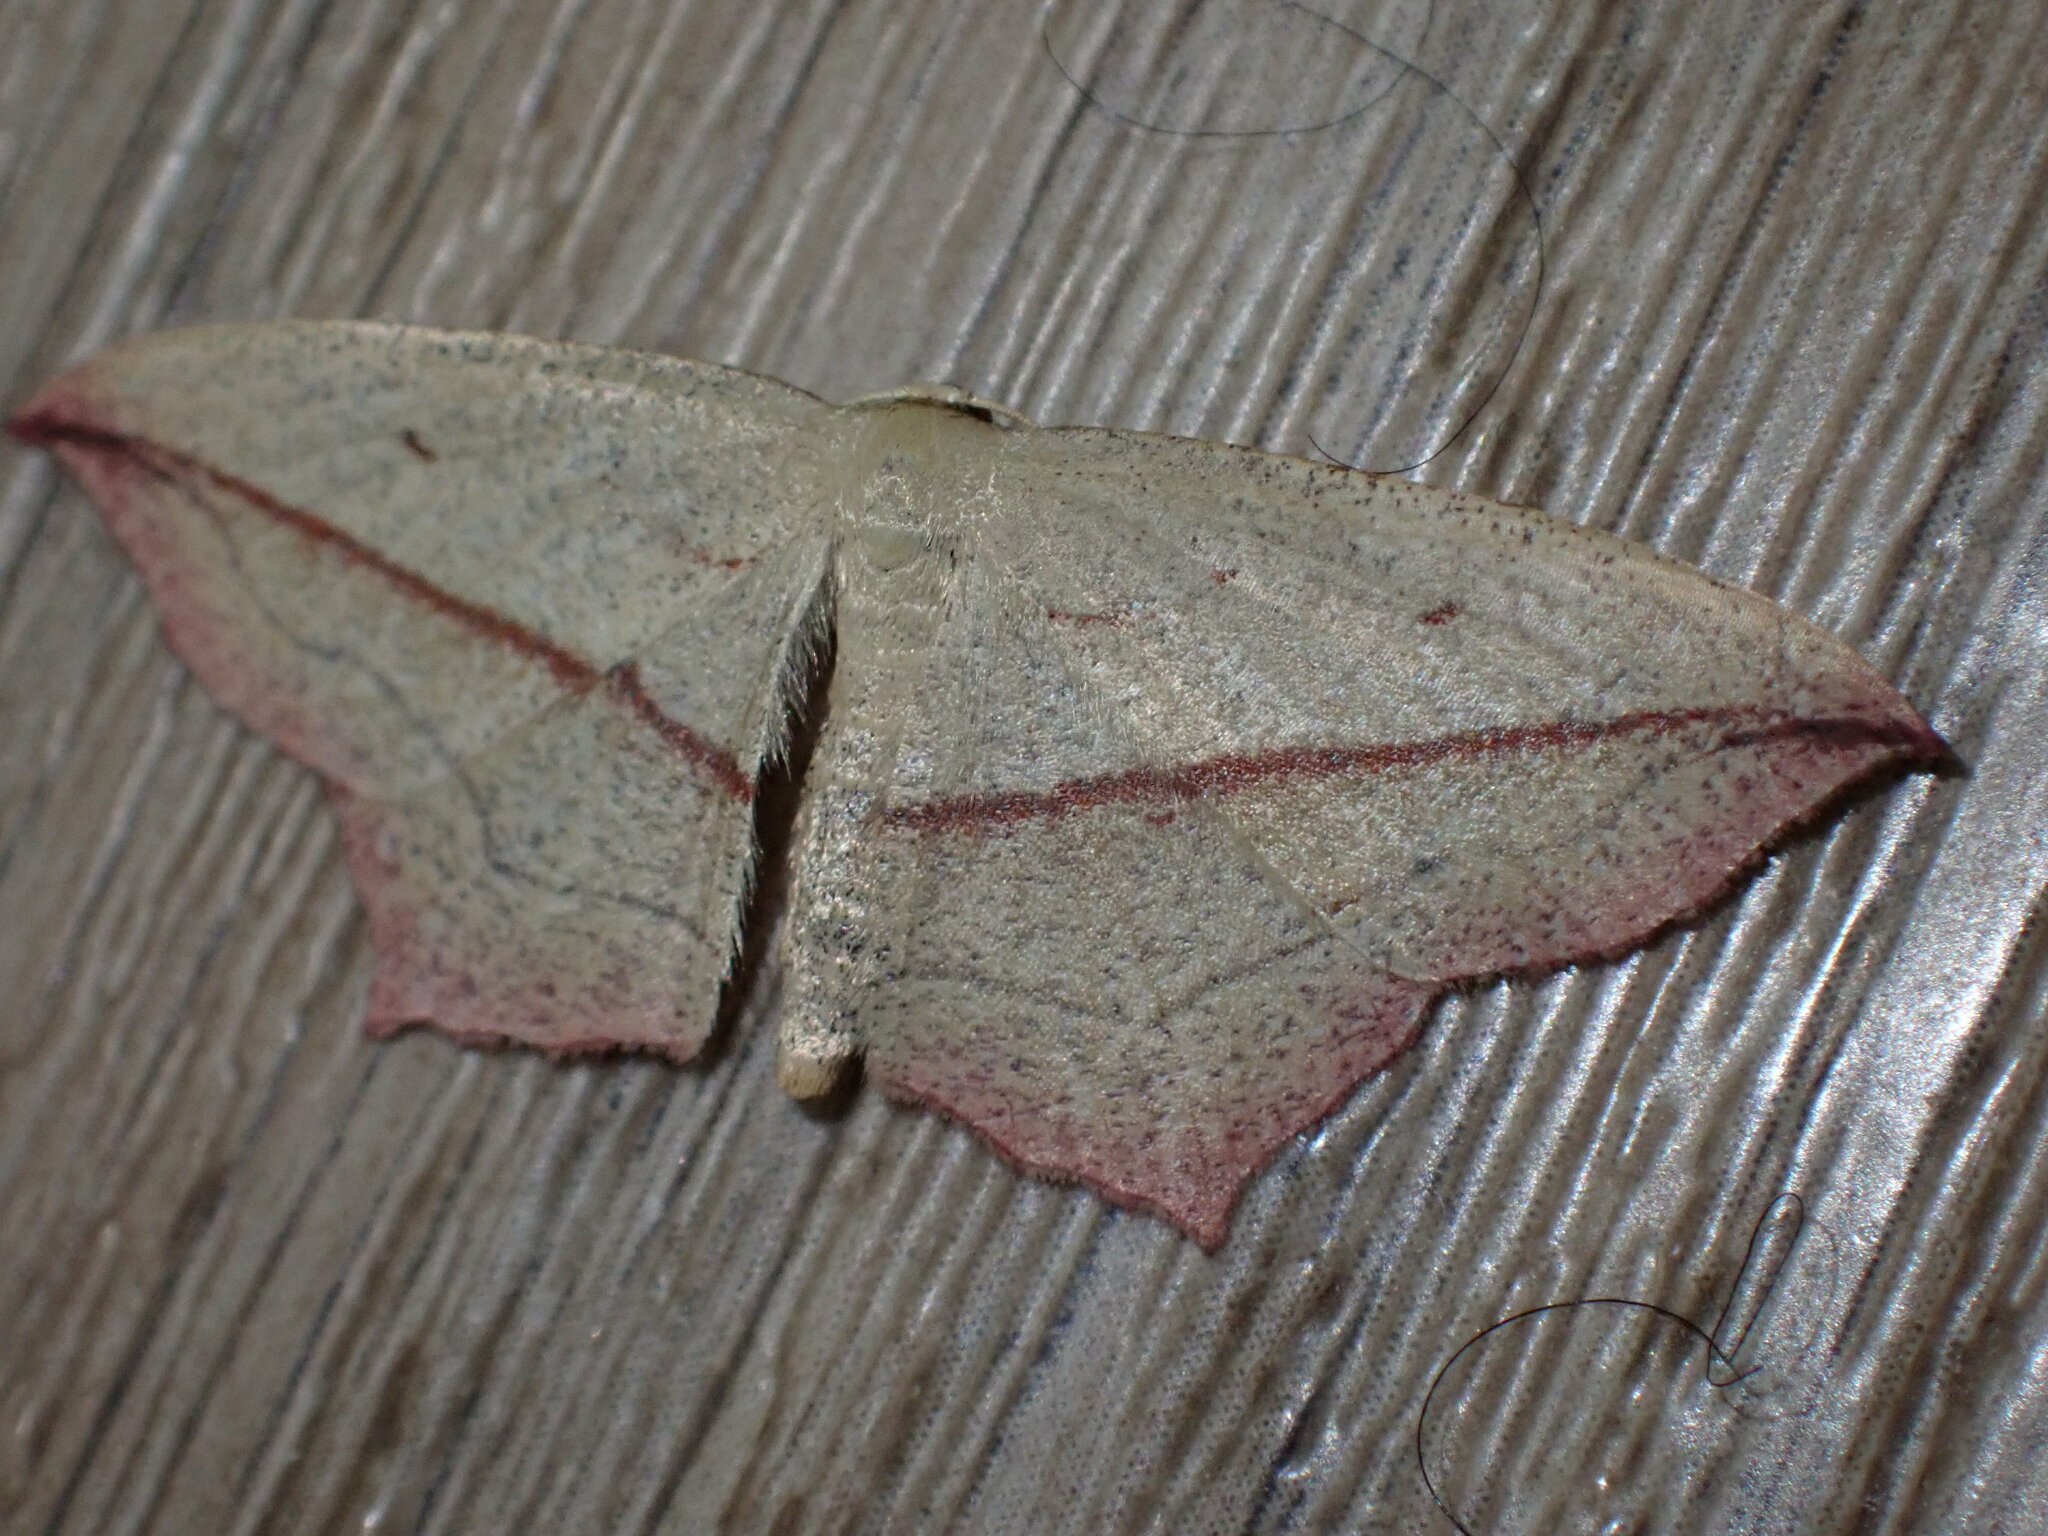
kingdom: Animalia
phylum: Arthropoda
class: Insecta
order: Lepidoptera
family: Geometridae
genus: Timandra
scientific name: Timandra comae
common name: Blood-vein
